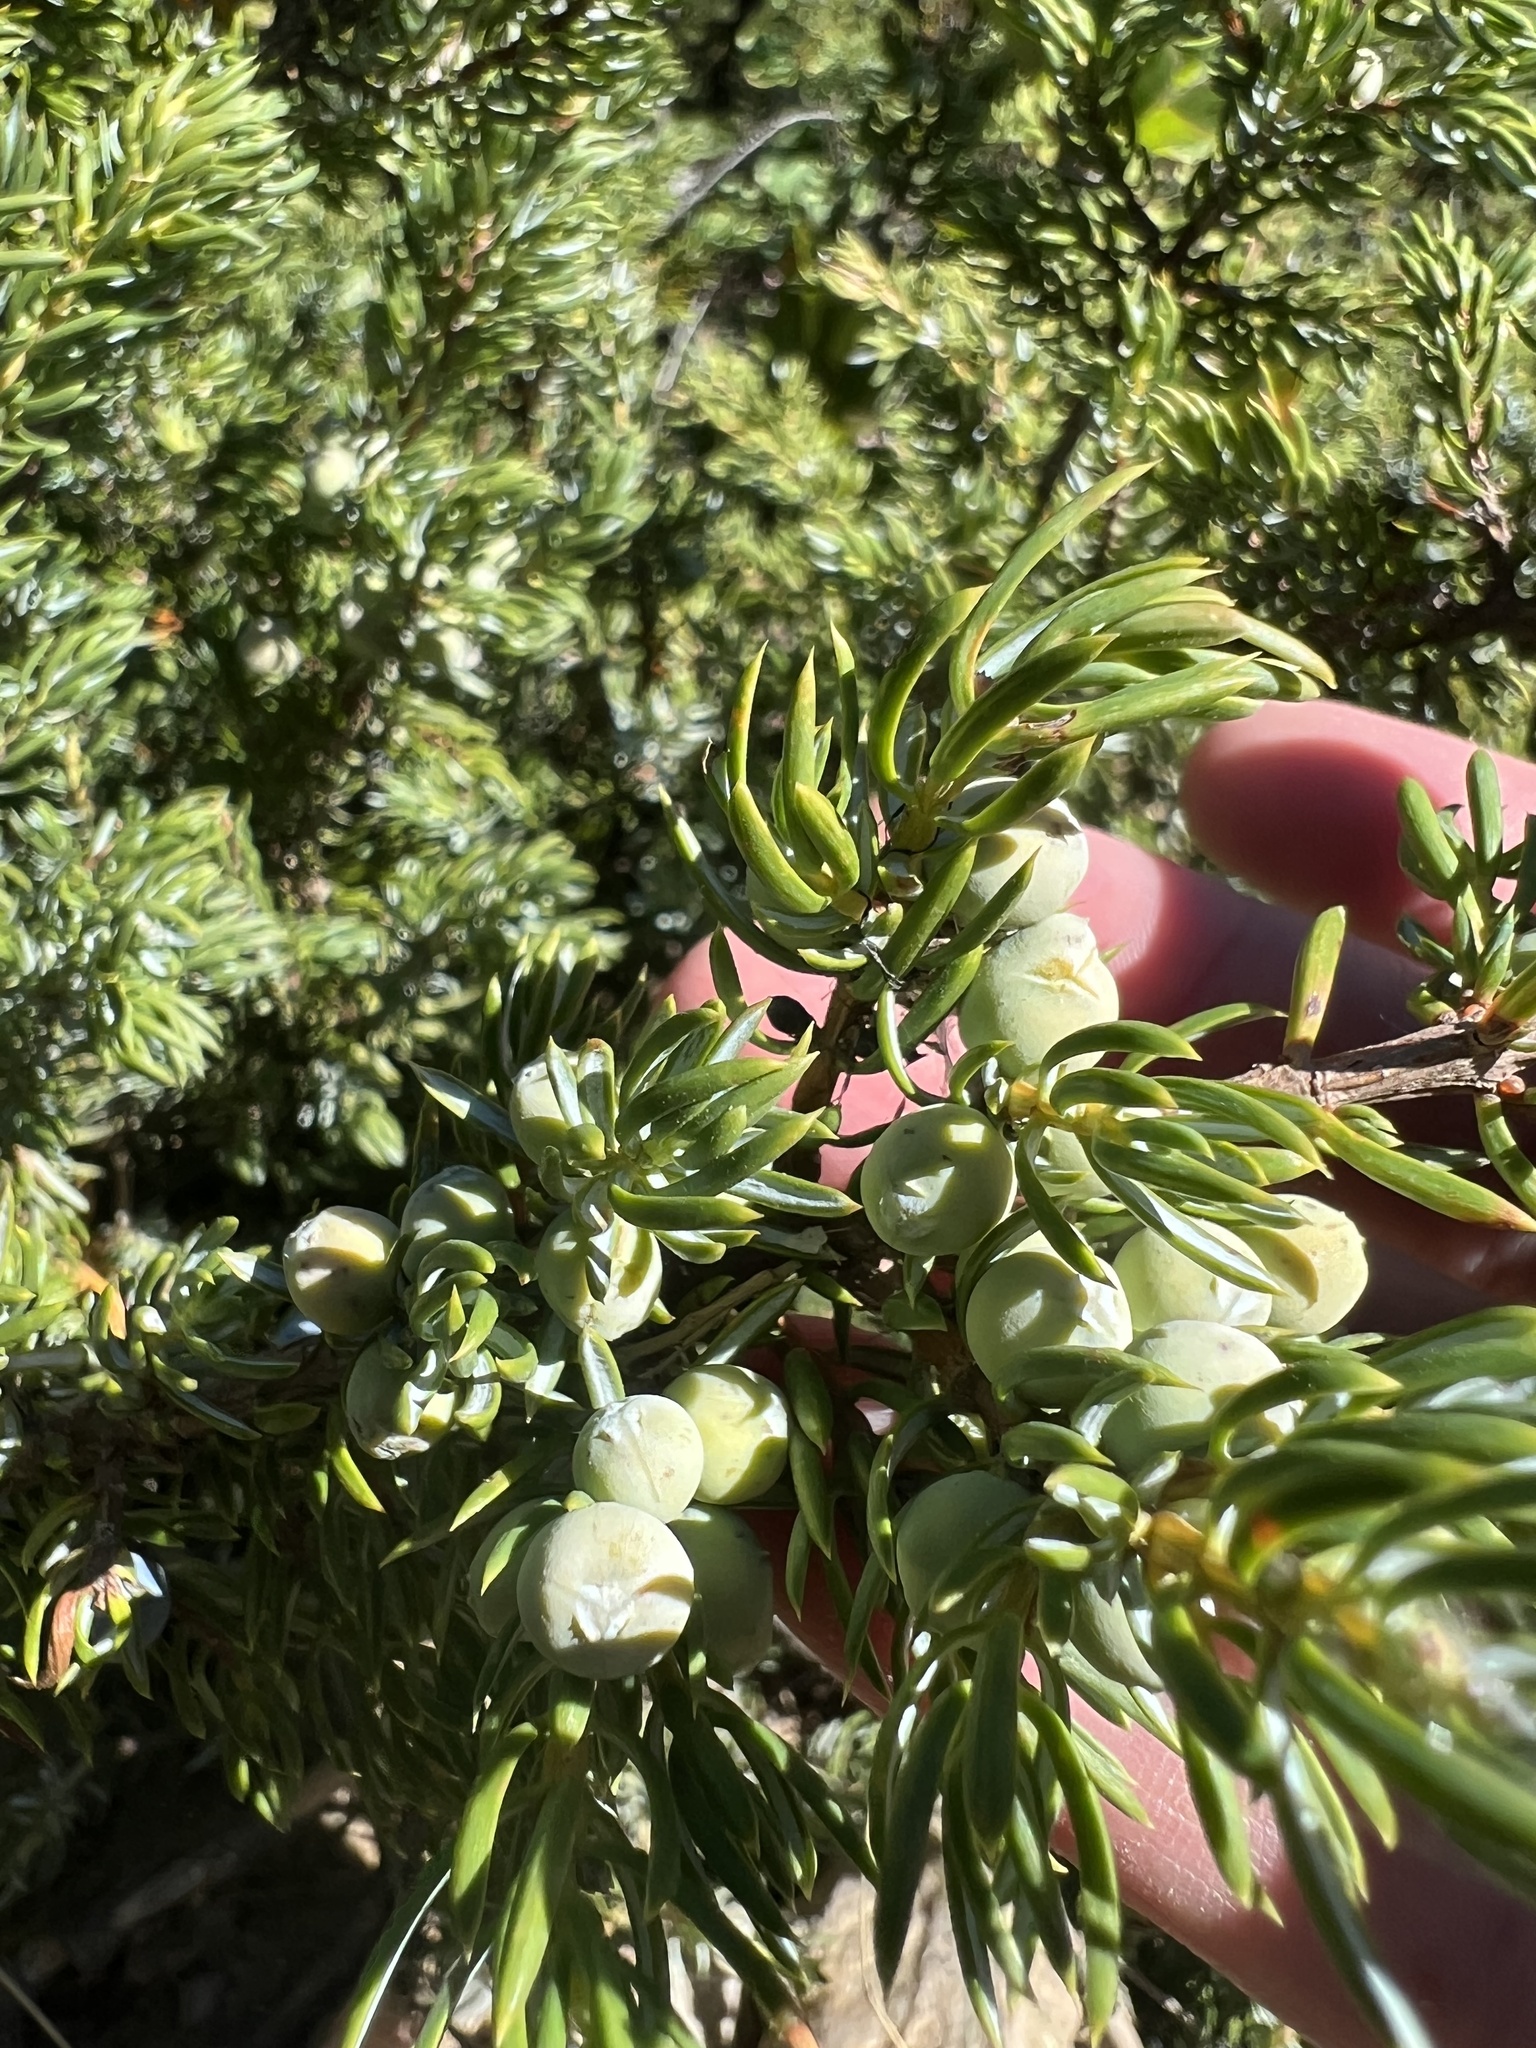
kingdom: Plantae
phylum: Tracheophyta
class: Pinopsida
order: Pinales
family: Cupressaceae
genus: Juniperus
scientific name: Juniperus communis
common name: Common juniper
